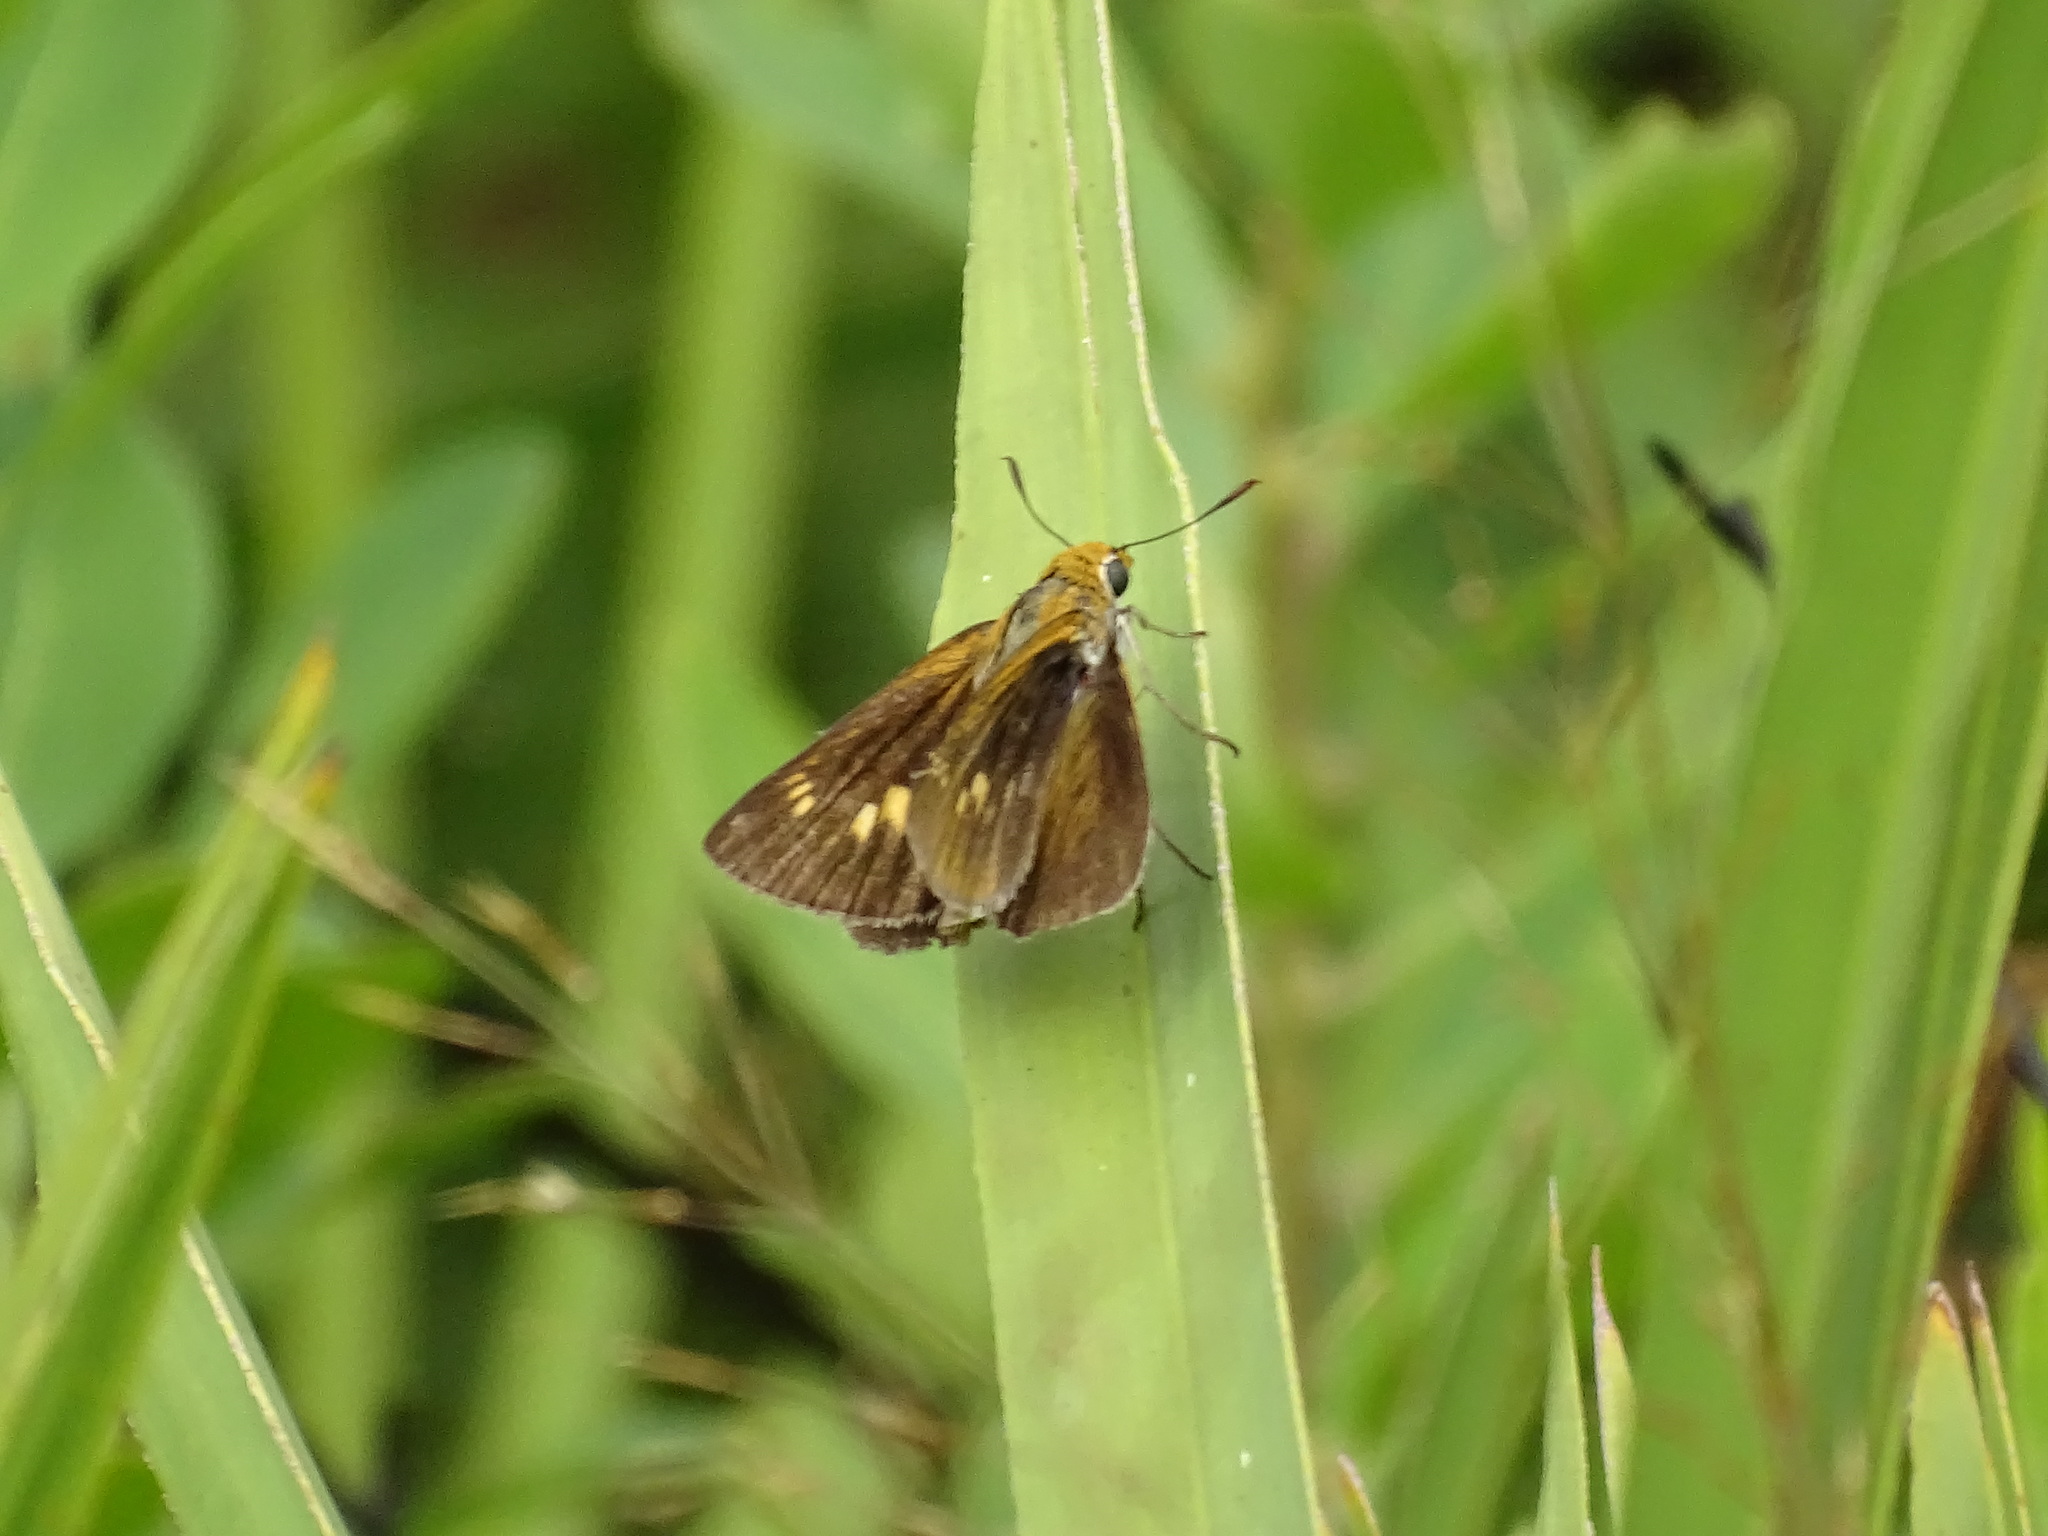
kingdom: Animalia
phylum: Arthropoda
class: Insecta
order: Lepidoptera
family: Hesperiidae
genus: Euphyes
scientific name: Euphyes arpa
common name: Palmetto skipper
